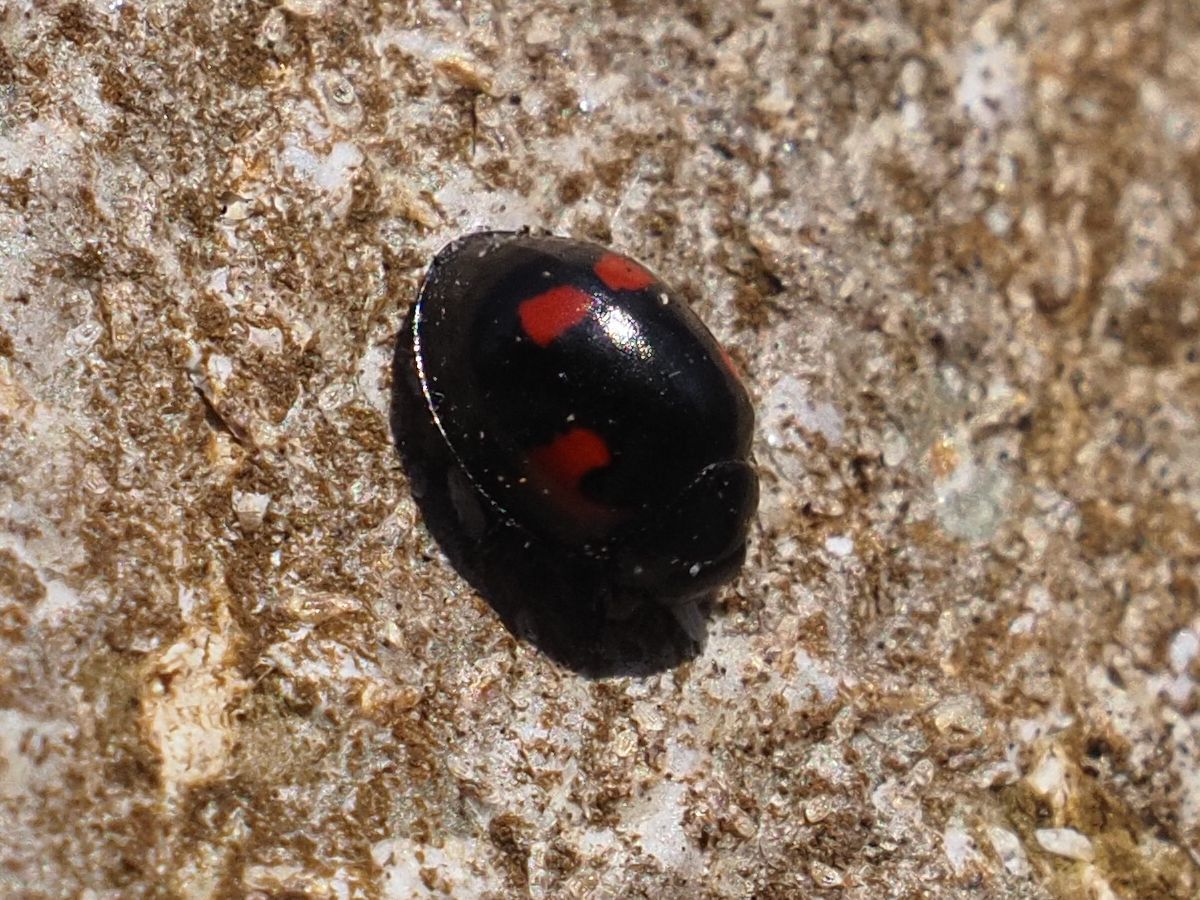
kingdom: Animalia
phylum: Arthropoda
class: Insecta
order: Coleoptera
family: Coccinellidae
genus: Brumus
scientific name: Brumus quadripustulatus
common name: Ladybird beetle
